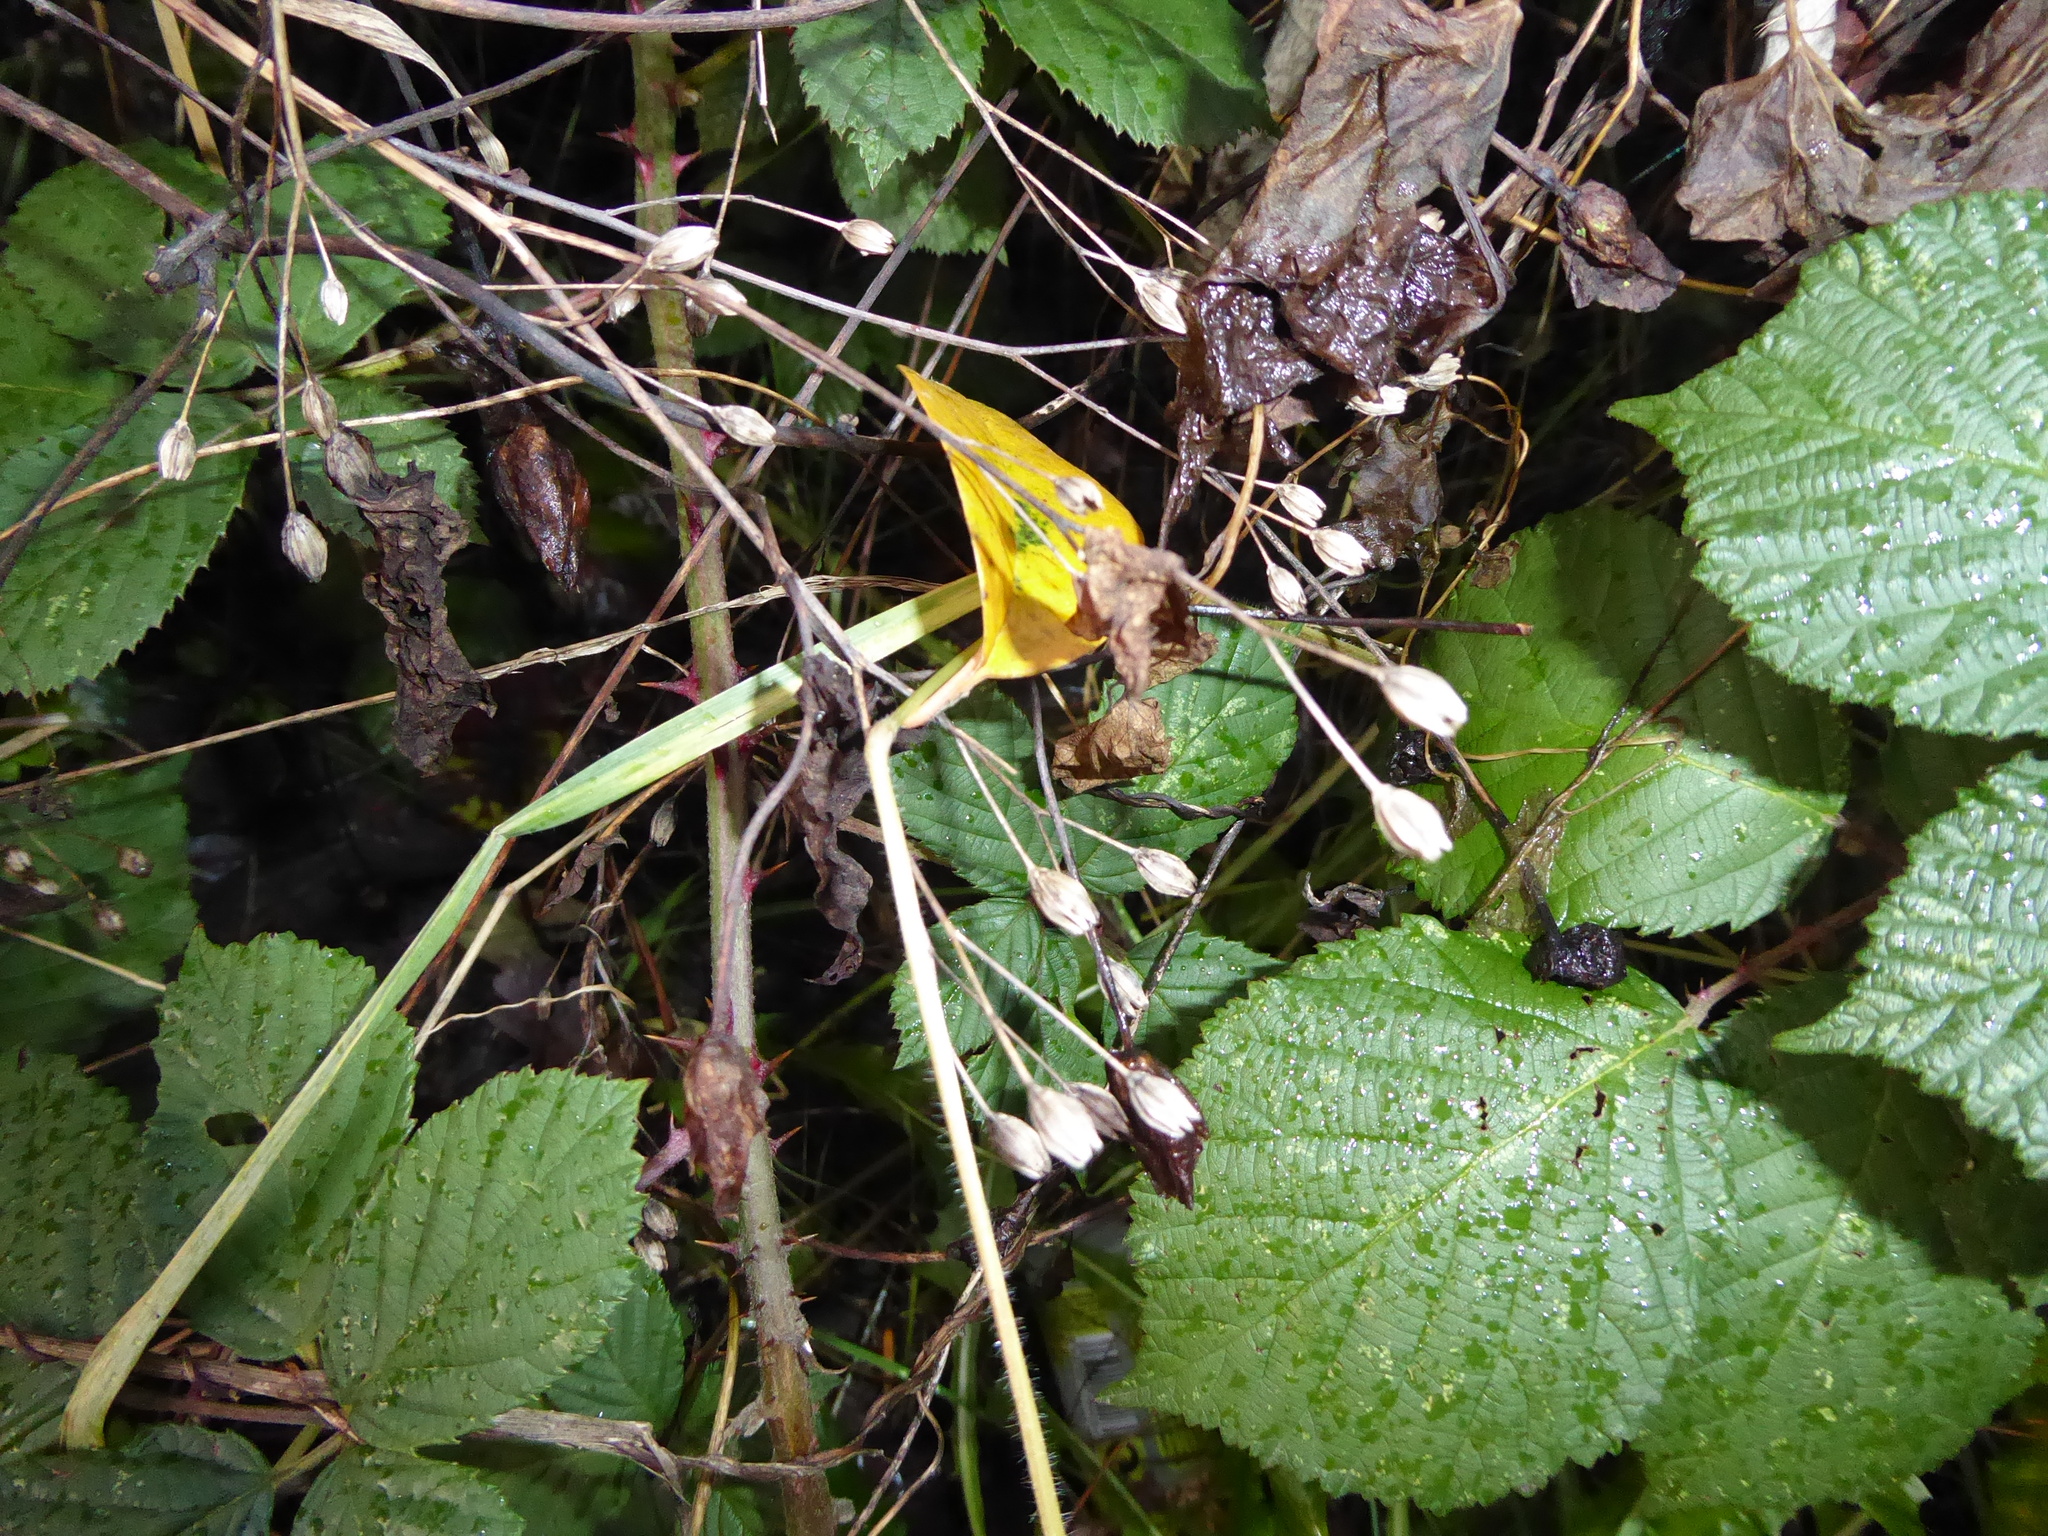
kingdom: Plantae
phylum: Tracheophyta
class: Magnoliopsida
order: Asterales
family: Asteraceae
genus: Lapsana
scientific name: Lapsana communis
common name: Nipplewort
